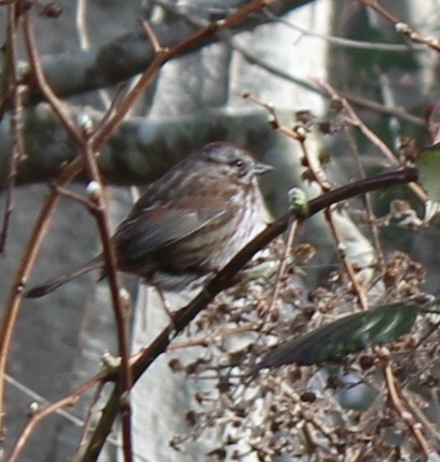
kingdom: Animalia
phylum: Chordata
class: Aves
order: Passeriformes
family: Passerellidae
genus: Melospiza
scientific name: Melospiza melodia
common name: Song sparrow
